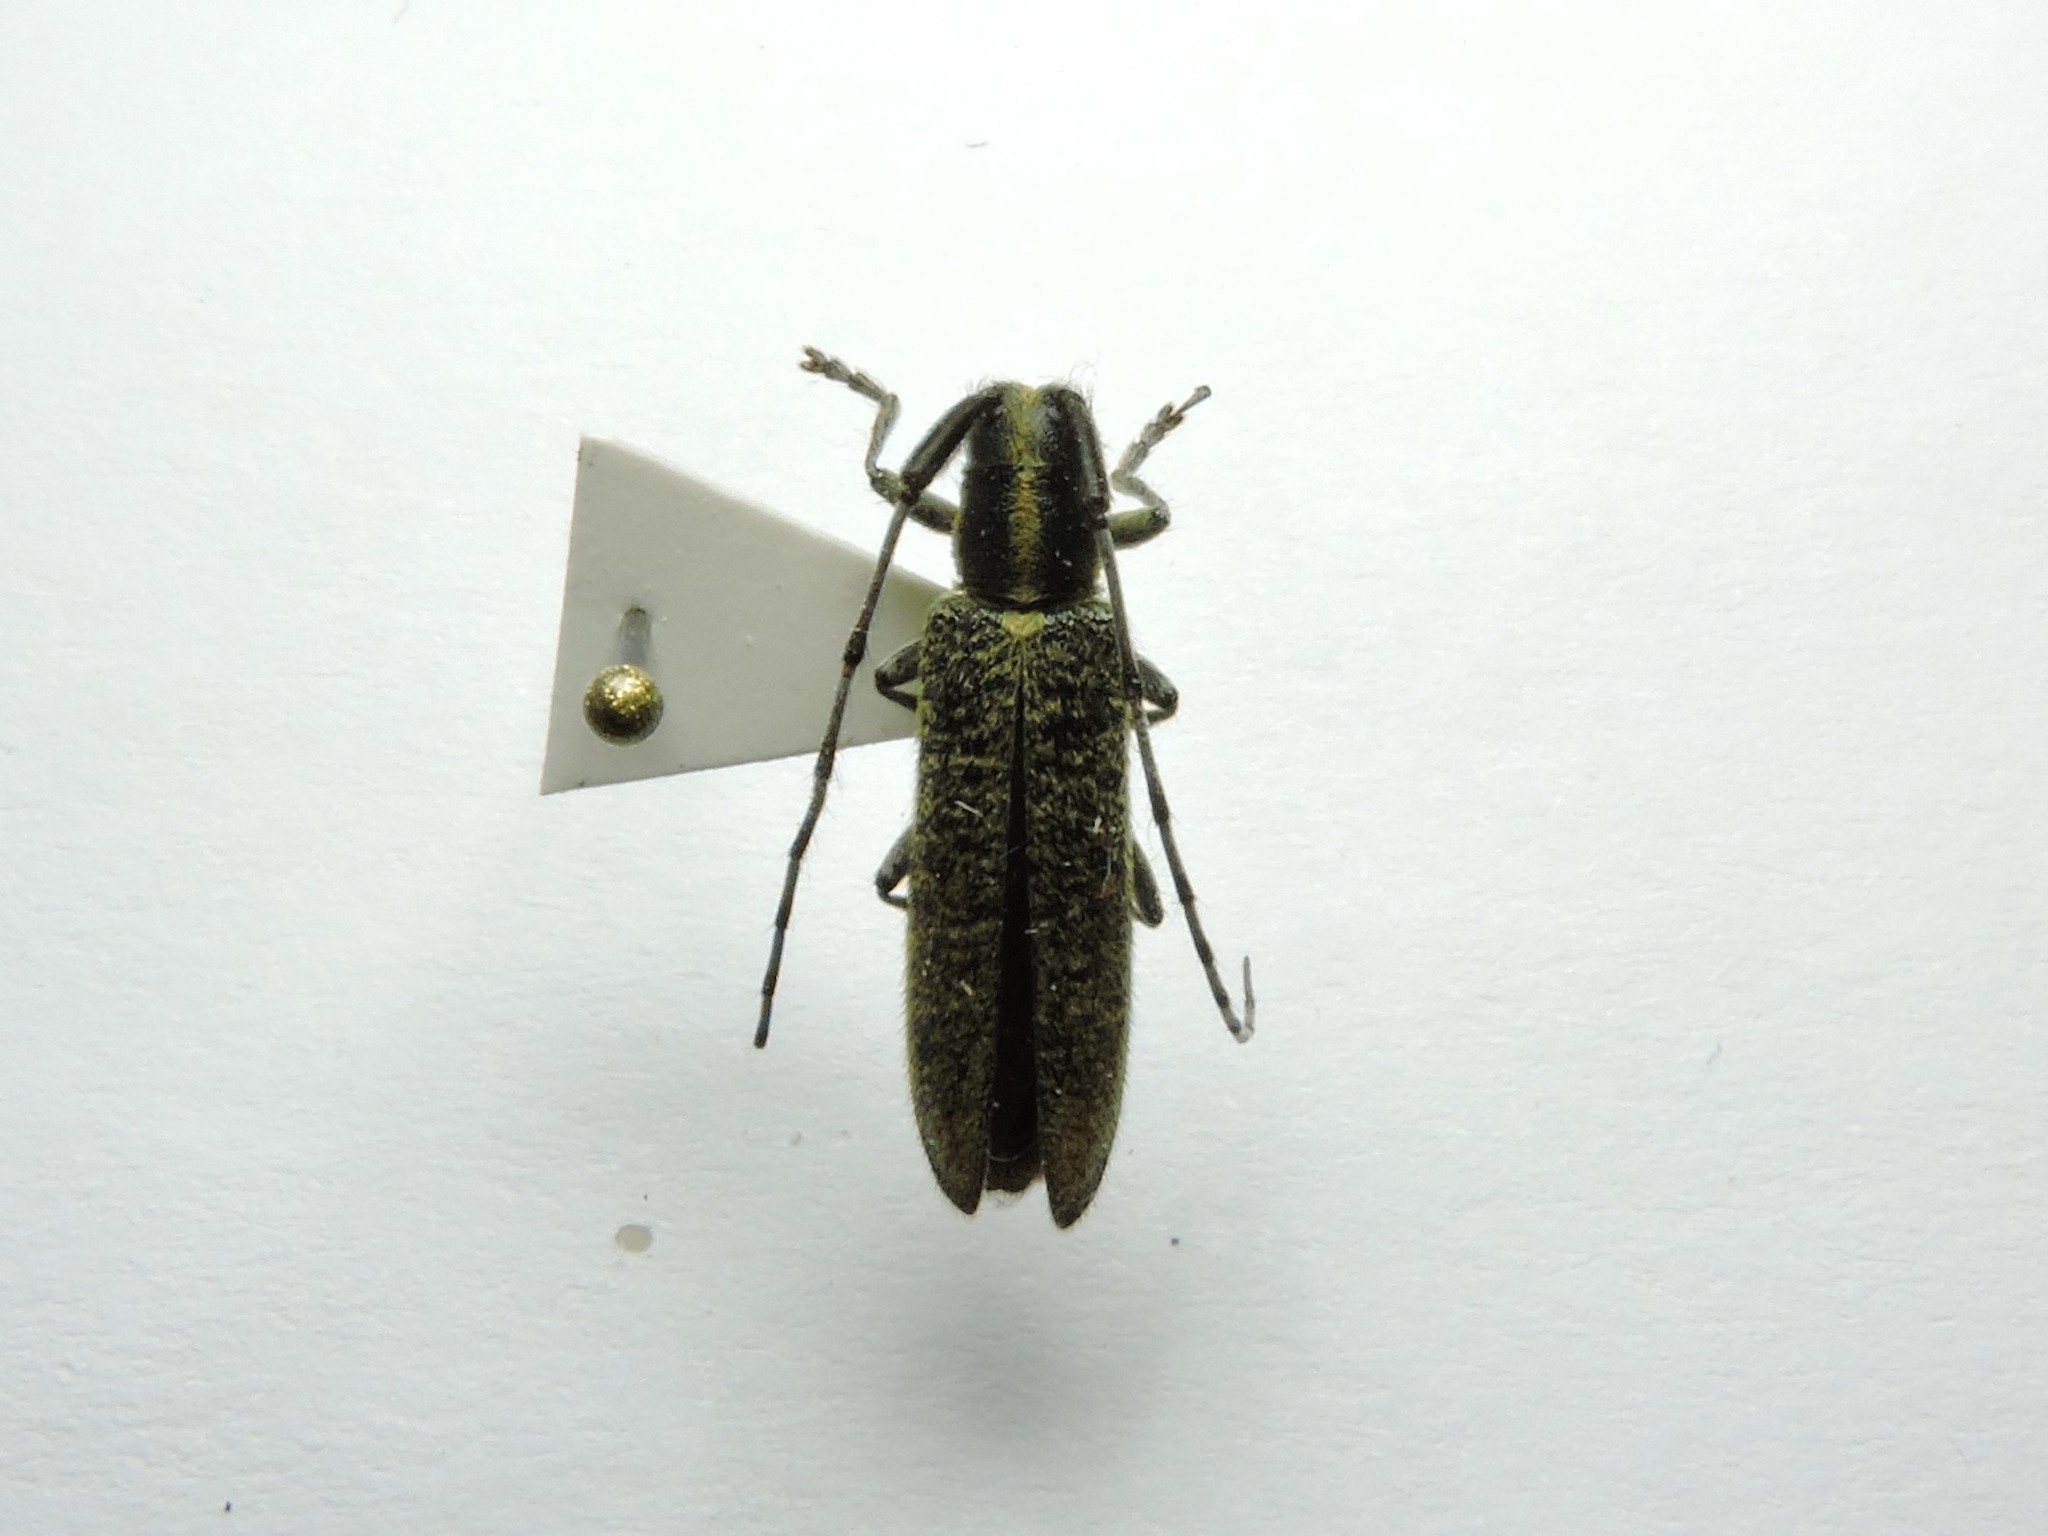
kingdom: Animalia
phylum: Arthropoda
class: Insecta
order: Coleoptera
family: Cerambycidae
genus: Agapanthia
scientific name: Agapanthia villosoviridescens
